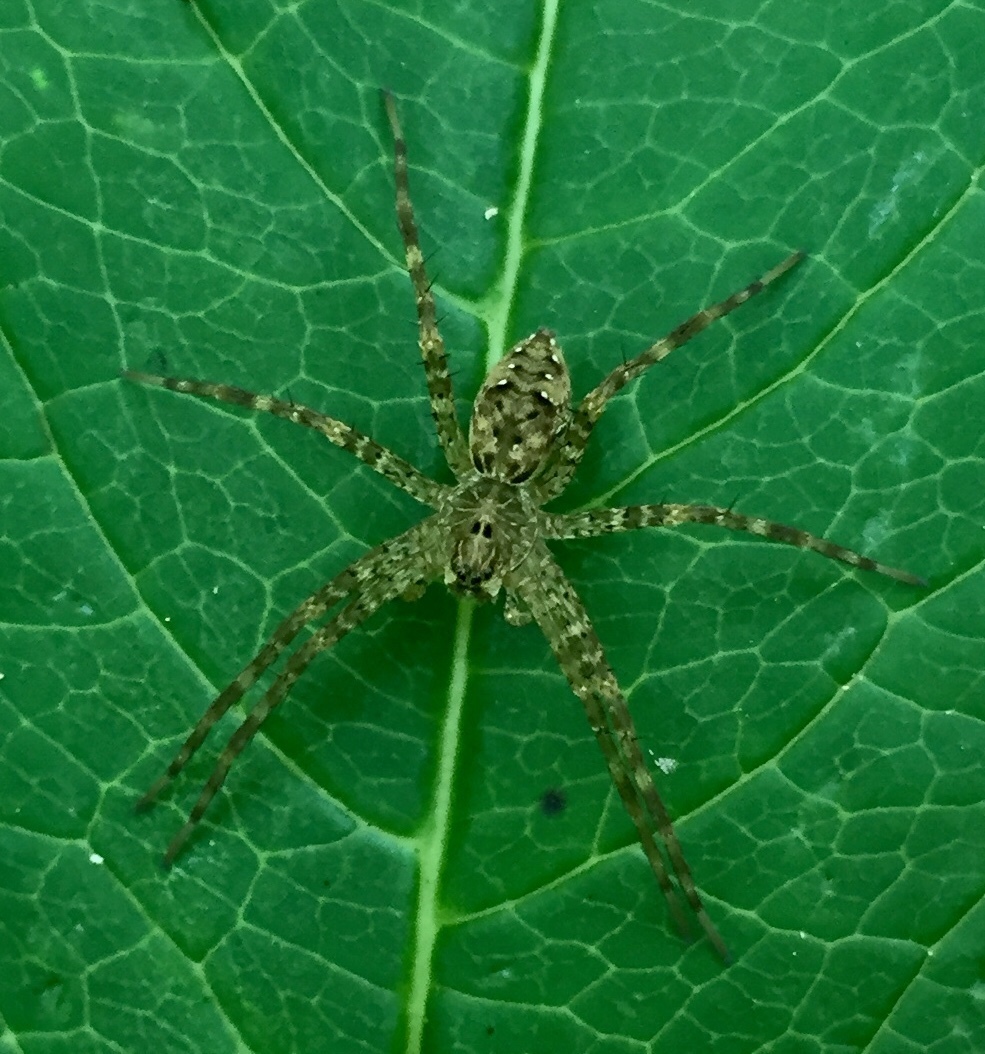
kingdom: Animalia
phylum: Arthropoda
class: Arachnida
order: Araneae
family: Pisauridae
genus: Dolomedes
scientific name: Dolomedes vittatus
